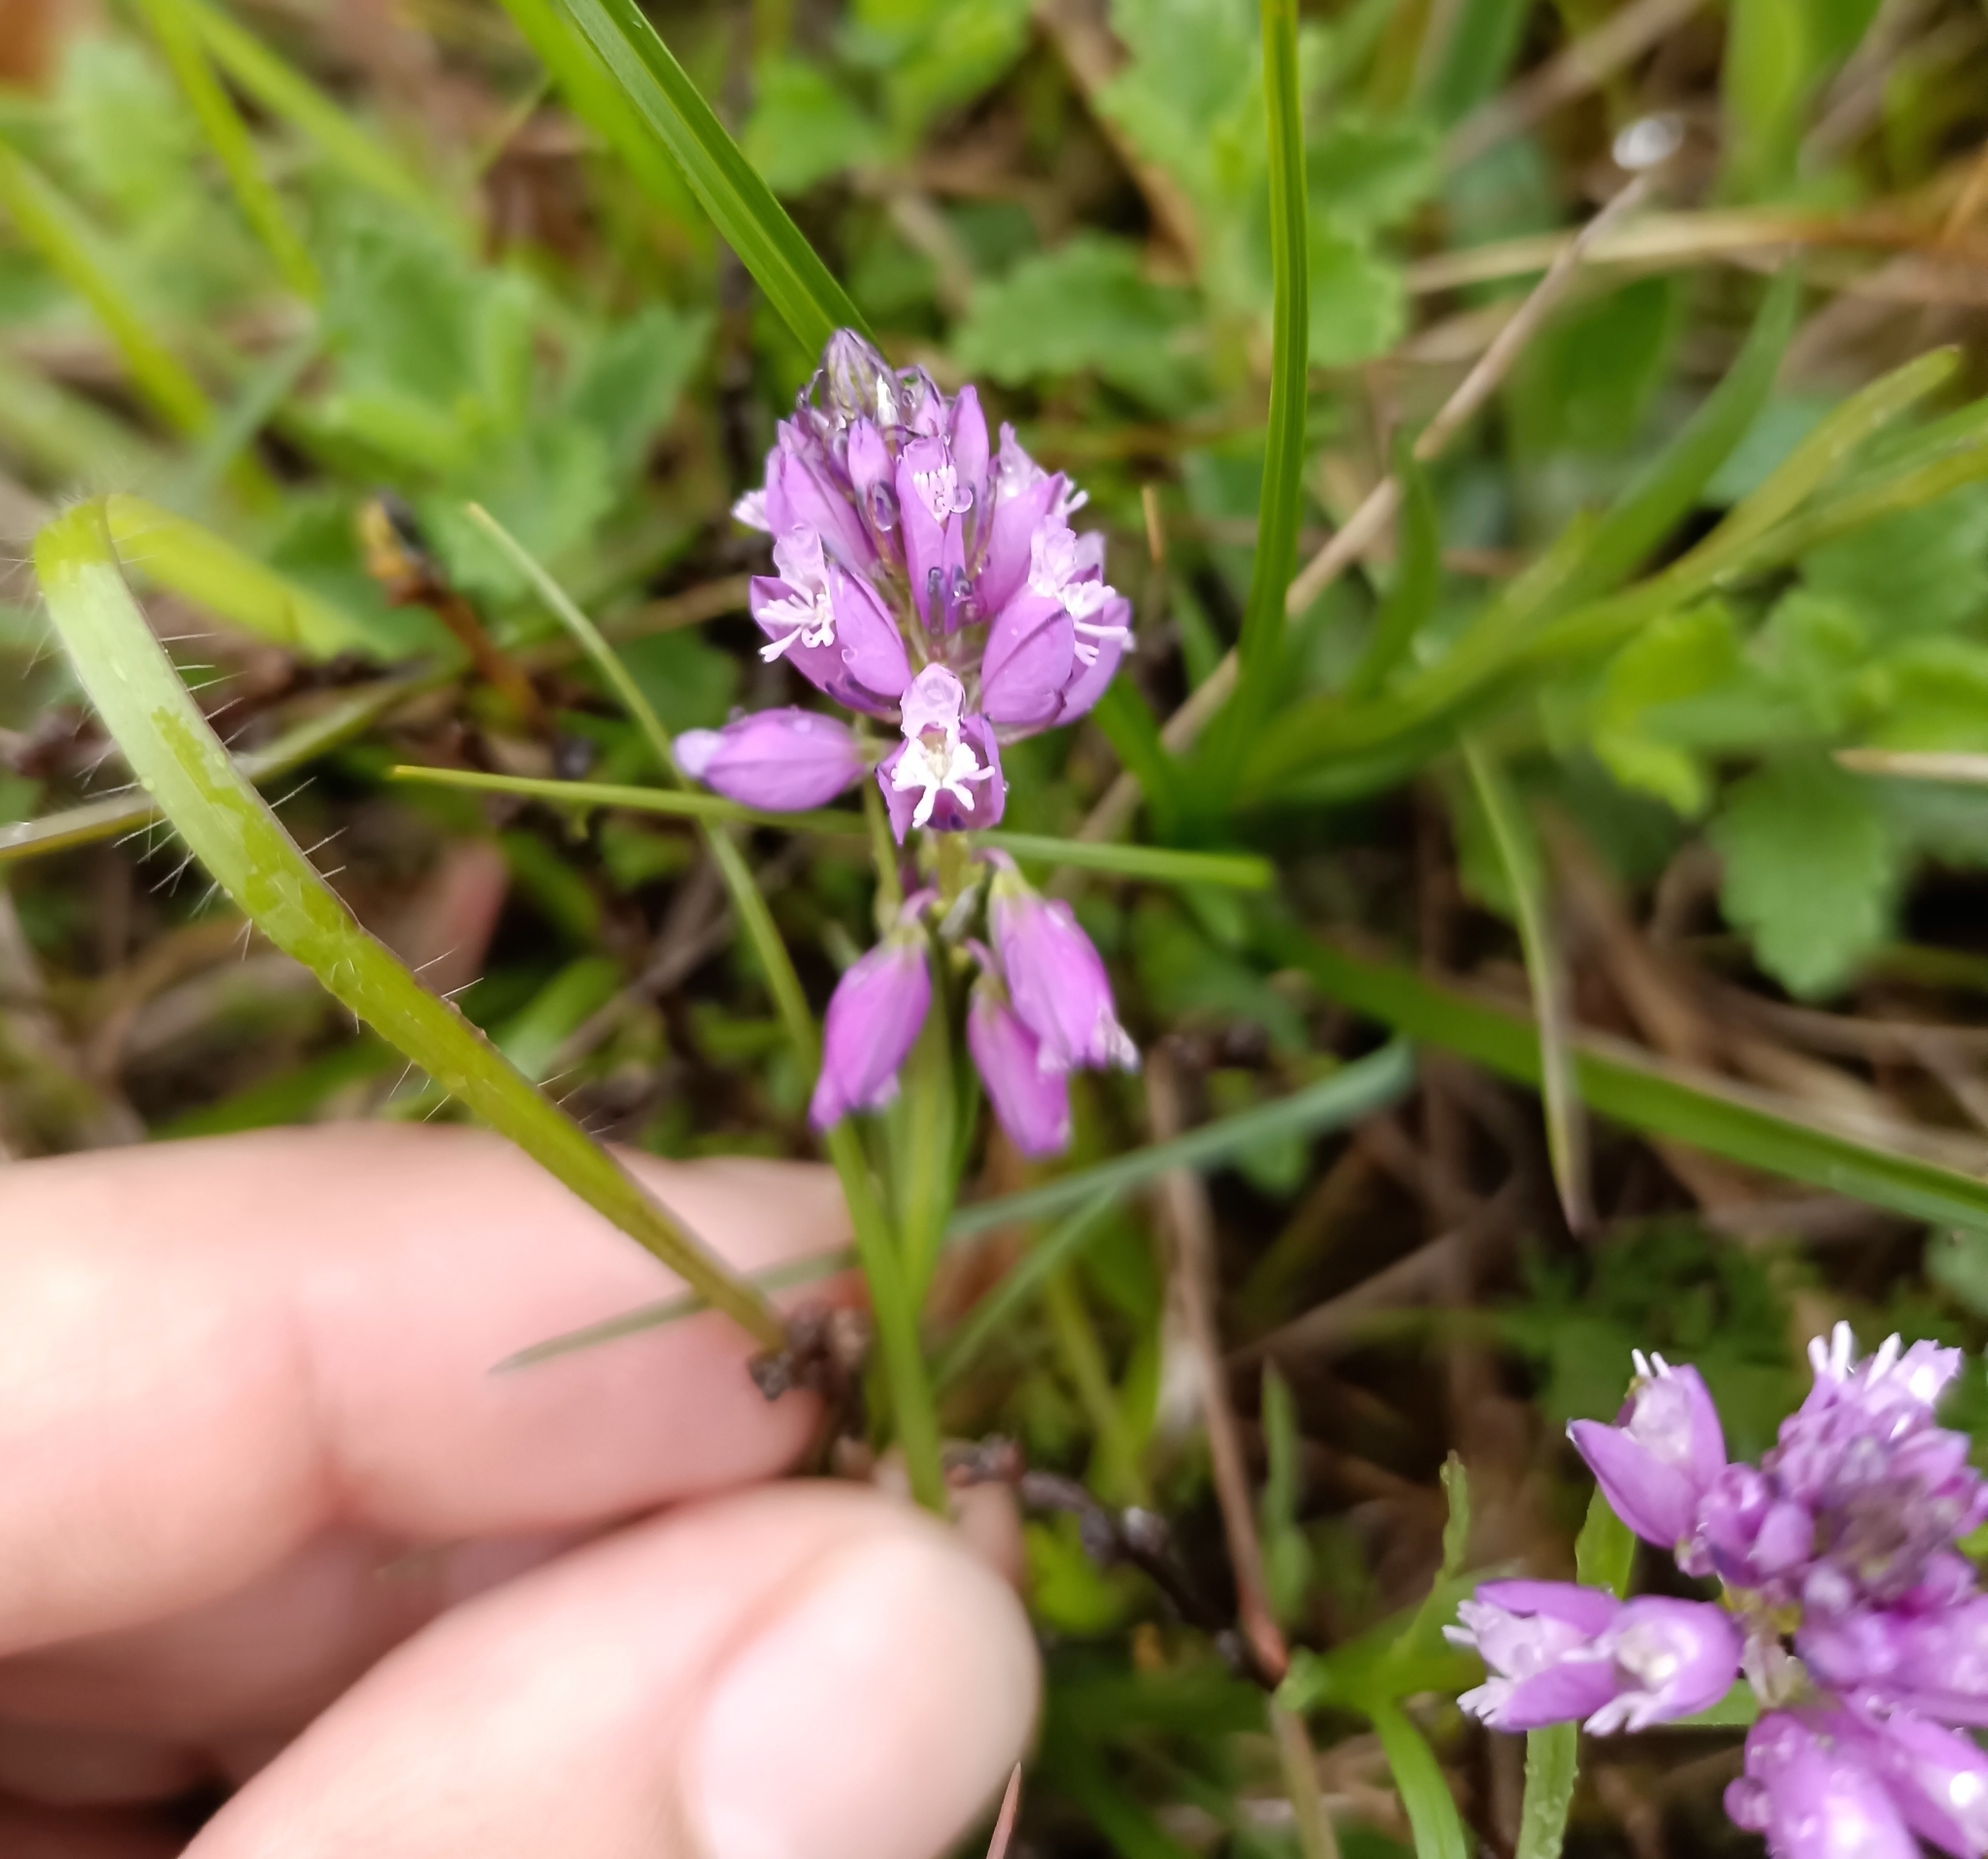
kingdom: Plantae
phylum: Tracheophyta
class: Magnoliopsida
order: Fabales
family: Polygalaceae
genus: Polygala
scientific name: Polygala comosa
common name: Tufted milkwort
